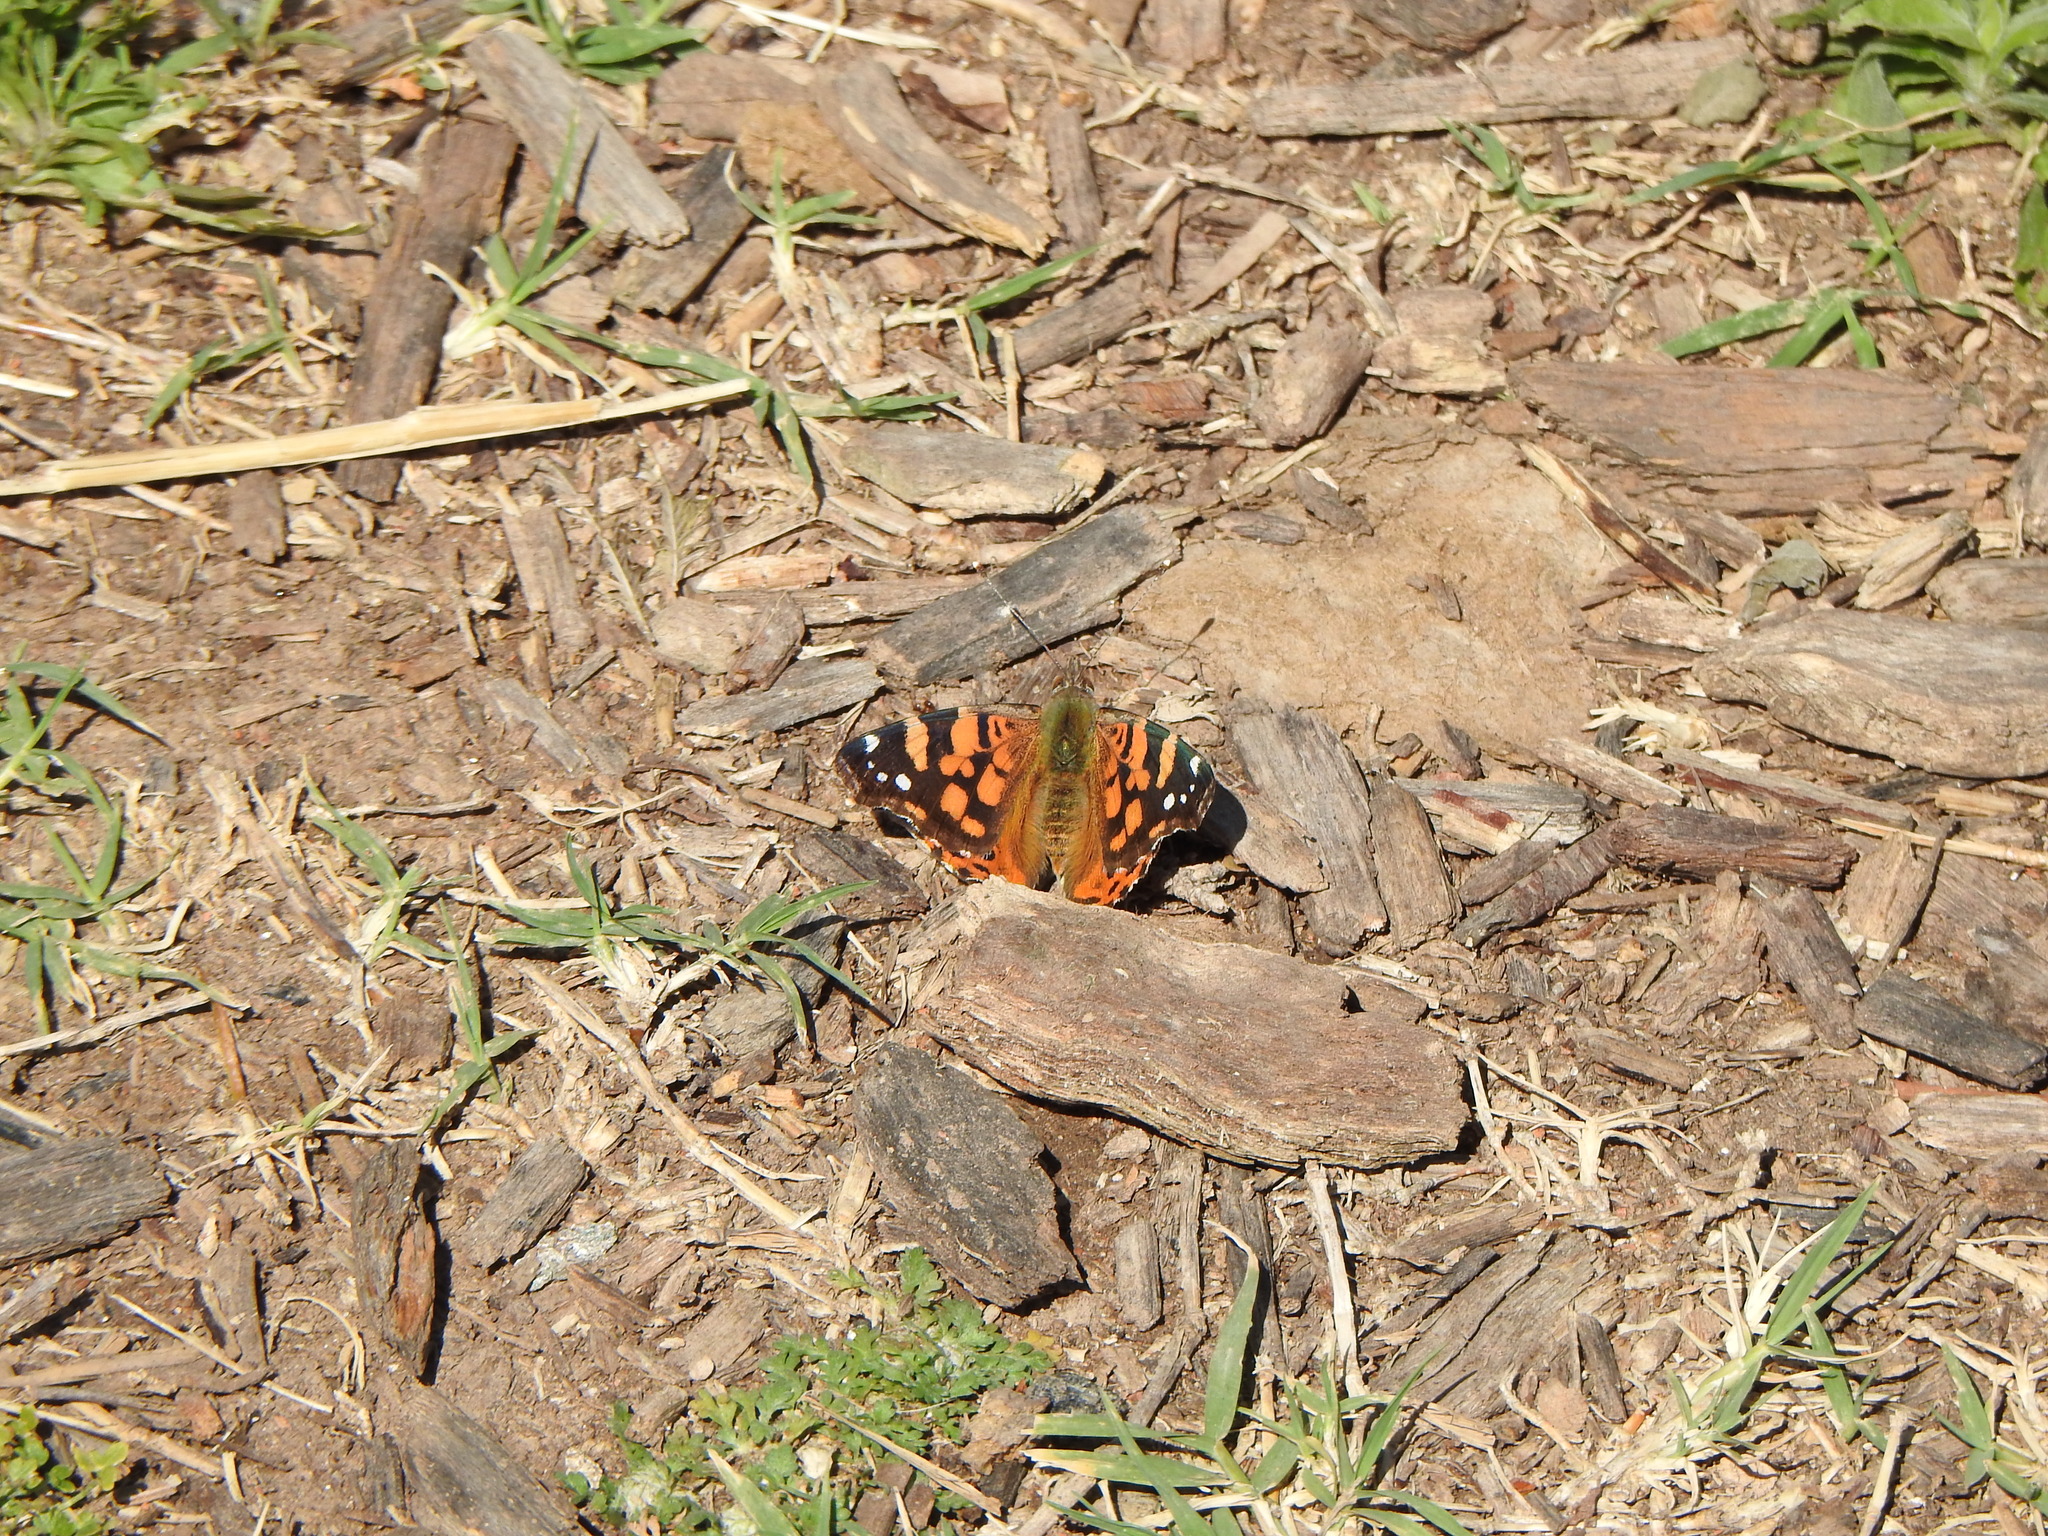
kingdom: Animalia
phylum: Arthropoda
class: Insecta
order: Lepidoptera
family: Nymphalidae
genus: Vanessa
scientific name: Vanessa carye
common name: Subtropical lady
